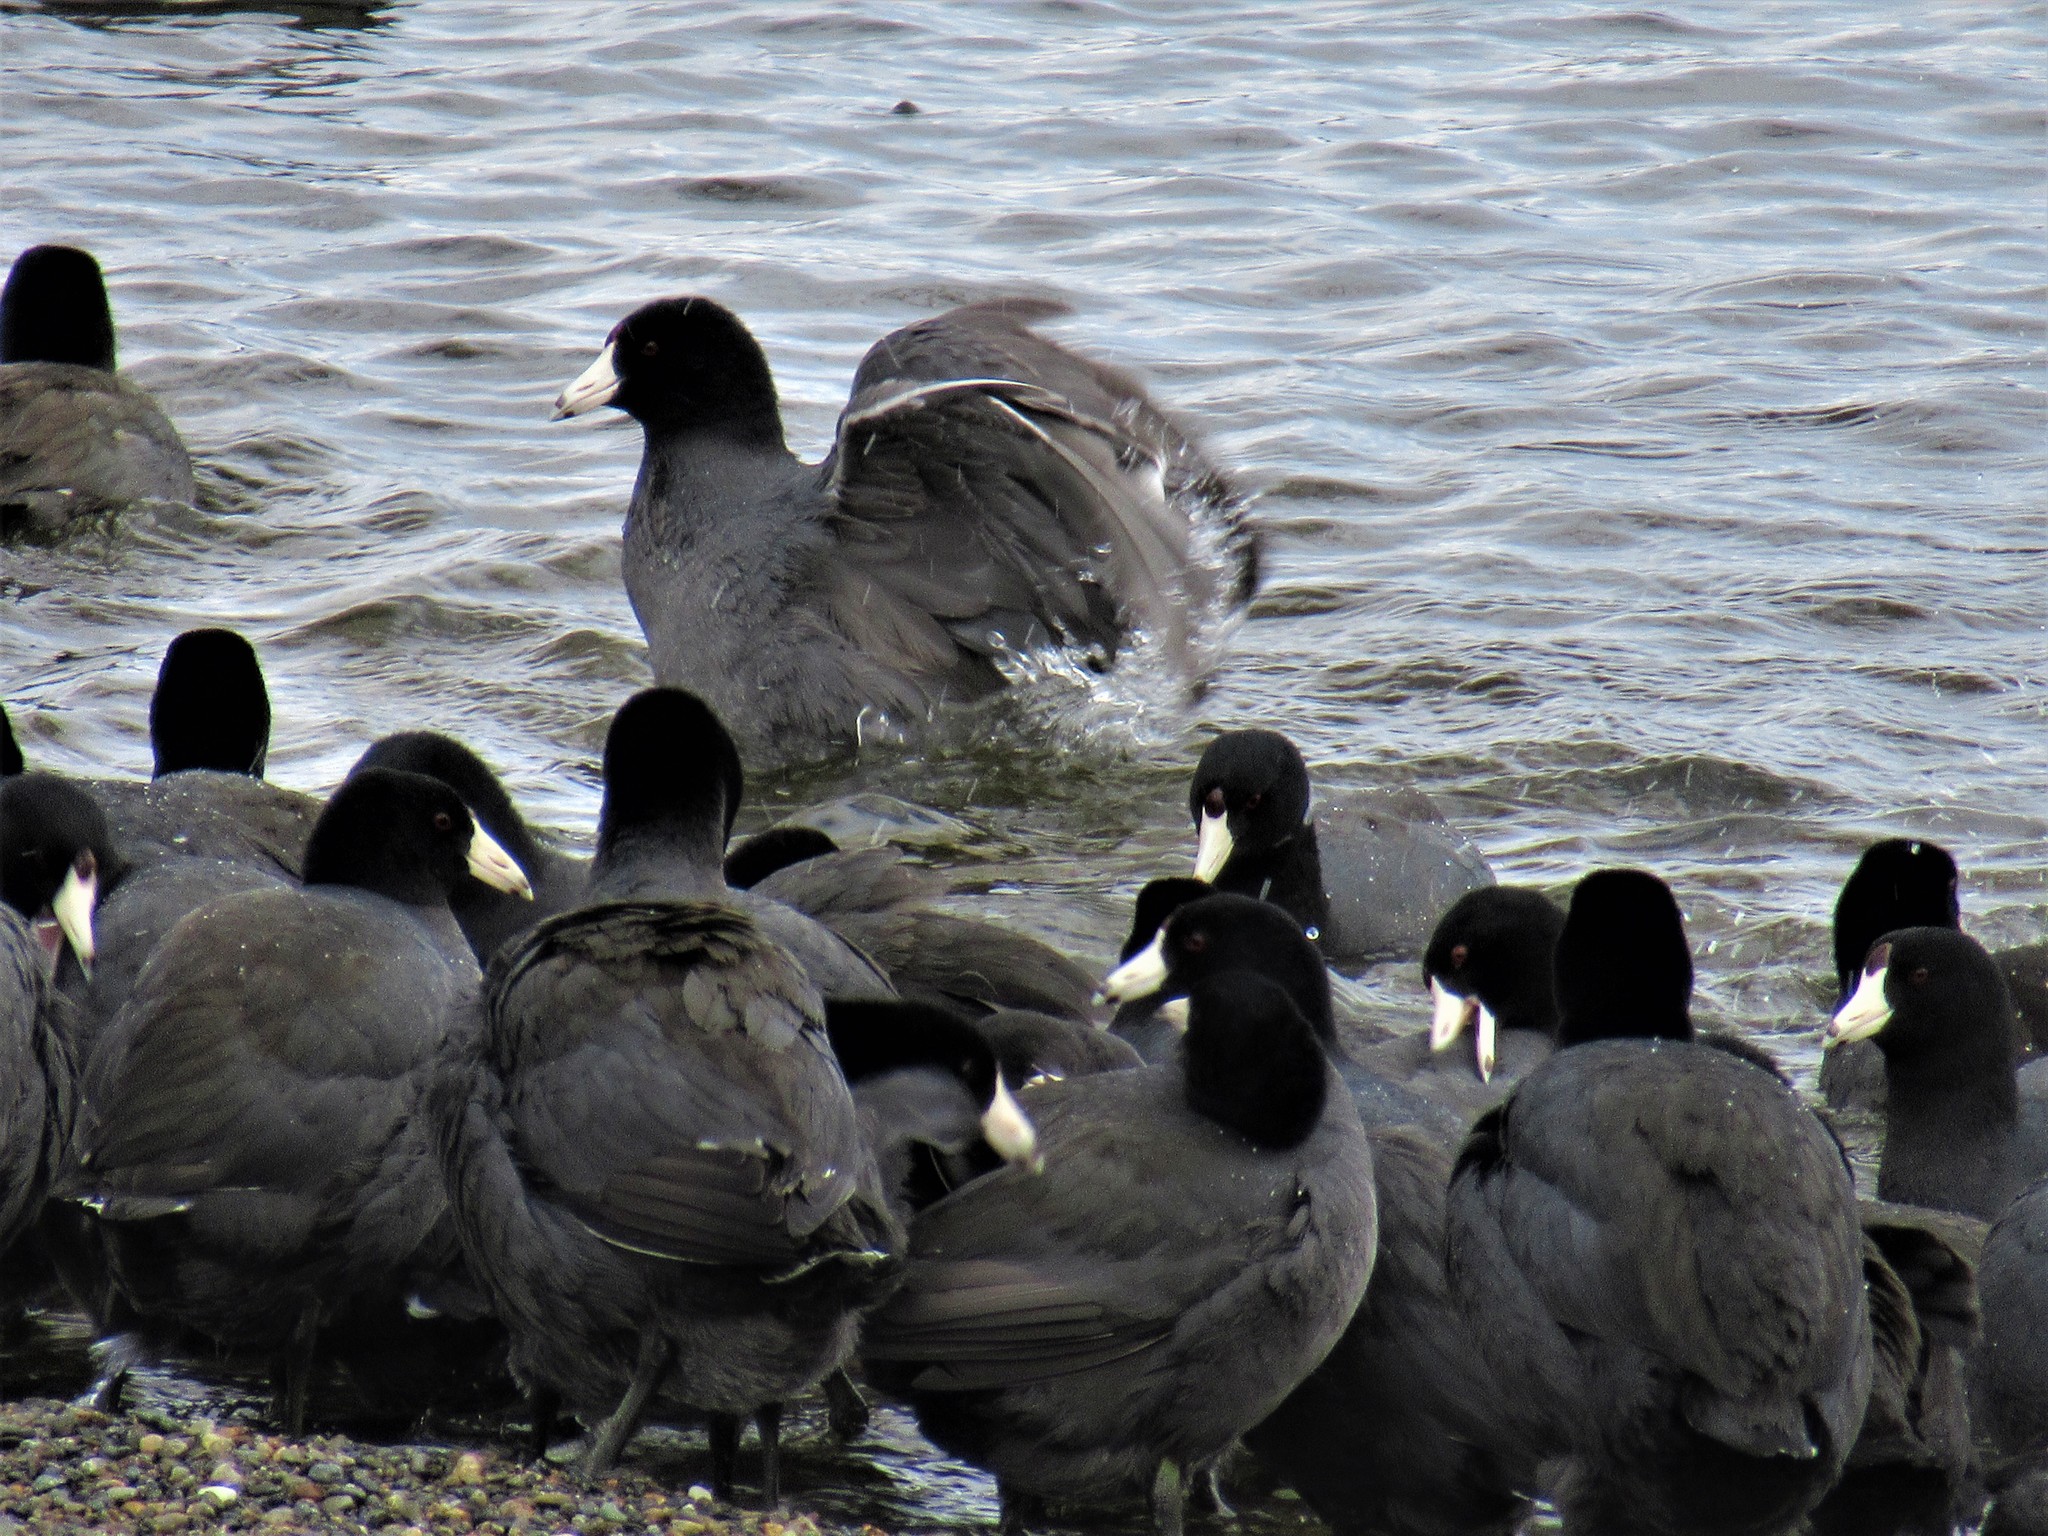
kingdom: Animalia
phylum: Chordata
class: Aves
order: Gruiformes
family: Rallidae
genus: Fulica
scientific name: Fulica americana
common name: American coot
